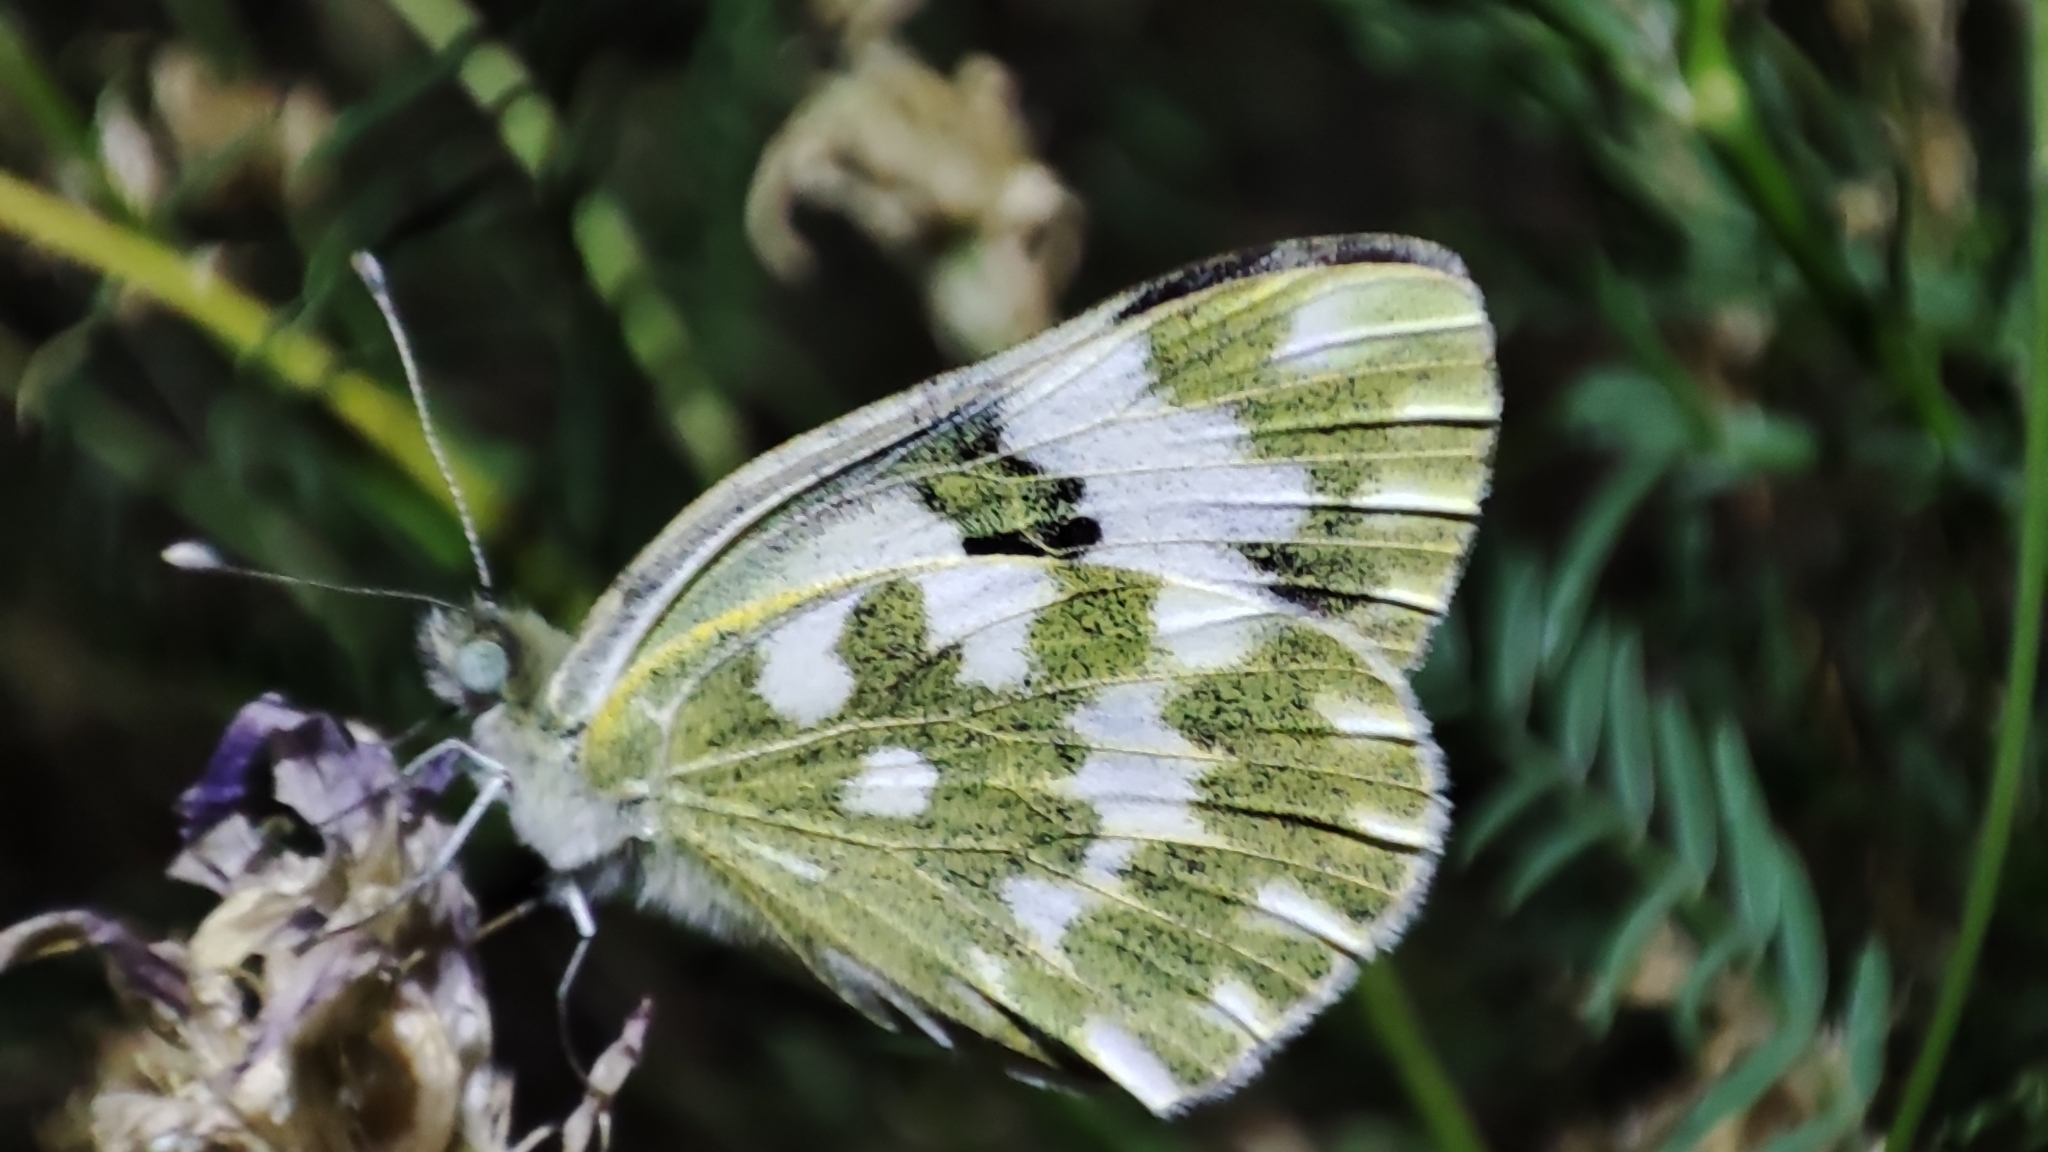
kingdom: Animalia
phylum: Arthropoda
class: Insecta
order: Lepidoptera
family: Pieridae
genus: Pontia
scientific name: Pontia edusa
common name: Eastern bath white
